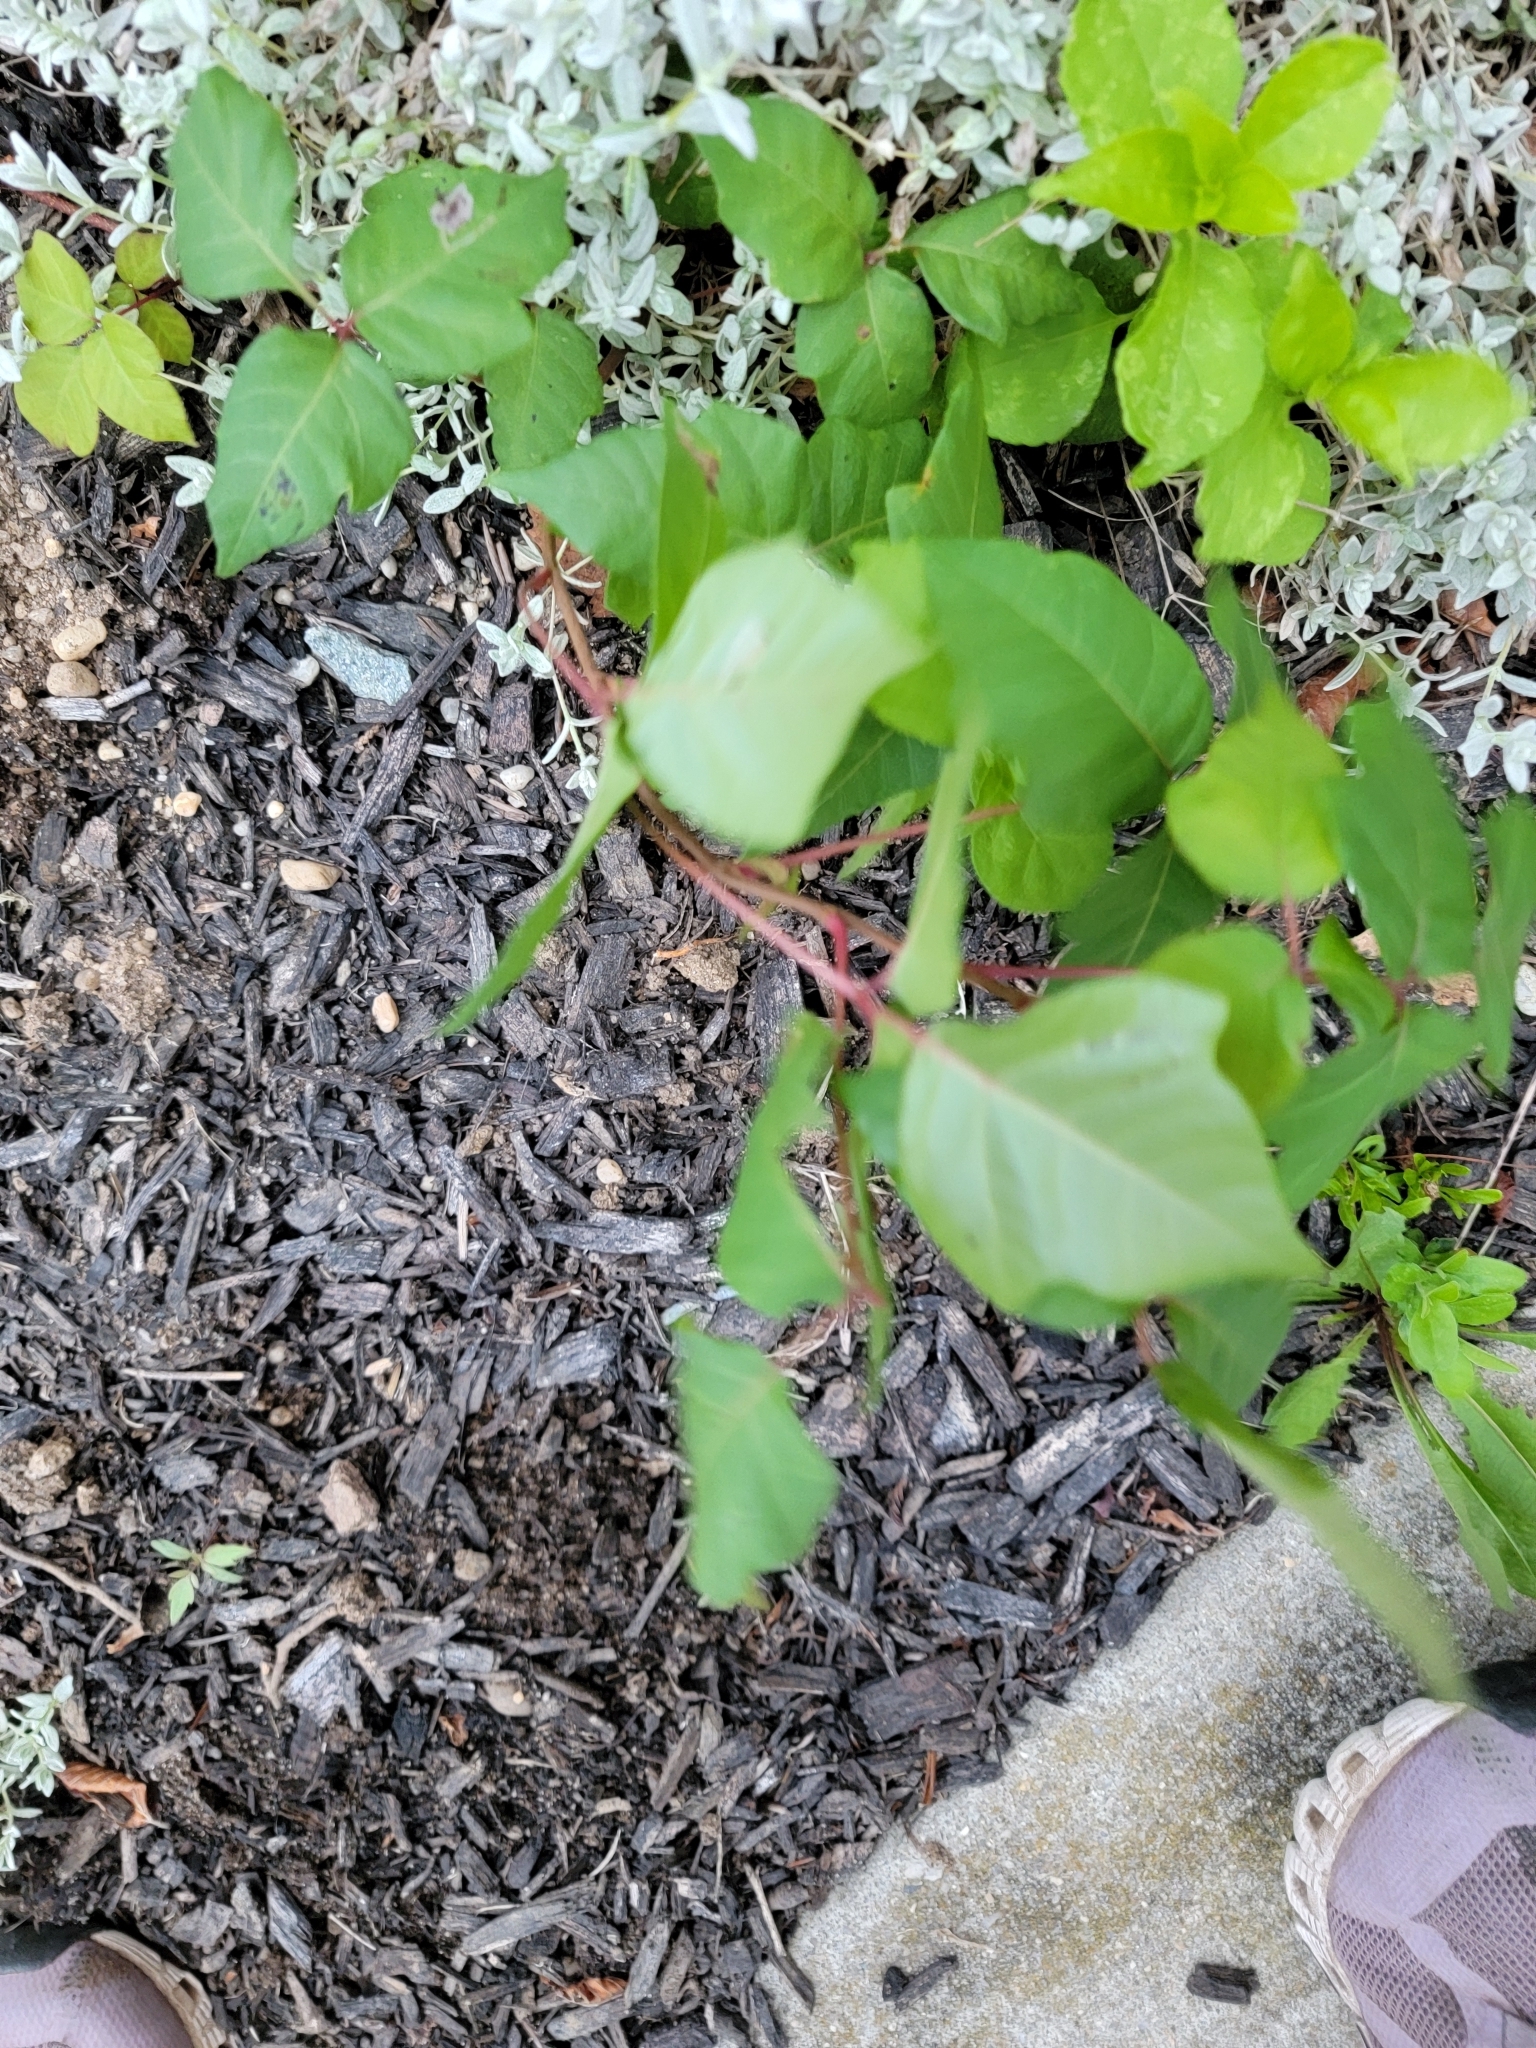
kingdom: Plantae
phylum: Tracheophyta
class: Magnoliopsida
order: Sapindales
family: Anacardiaceae
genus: Toxicodendron
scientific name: Toxicodendron radicans
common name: Poison ivy
